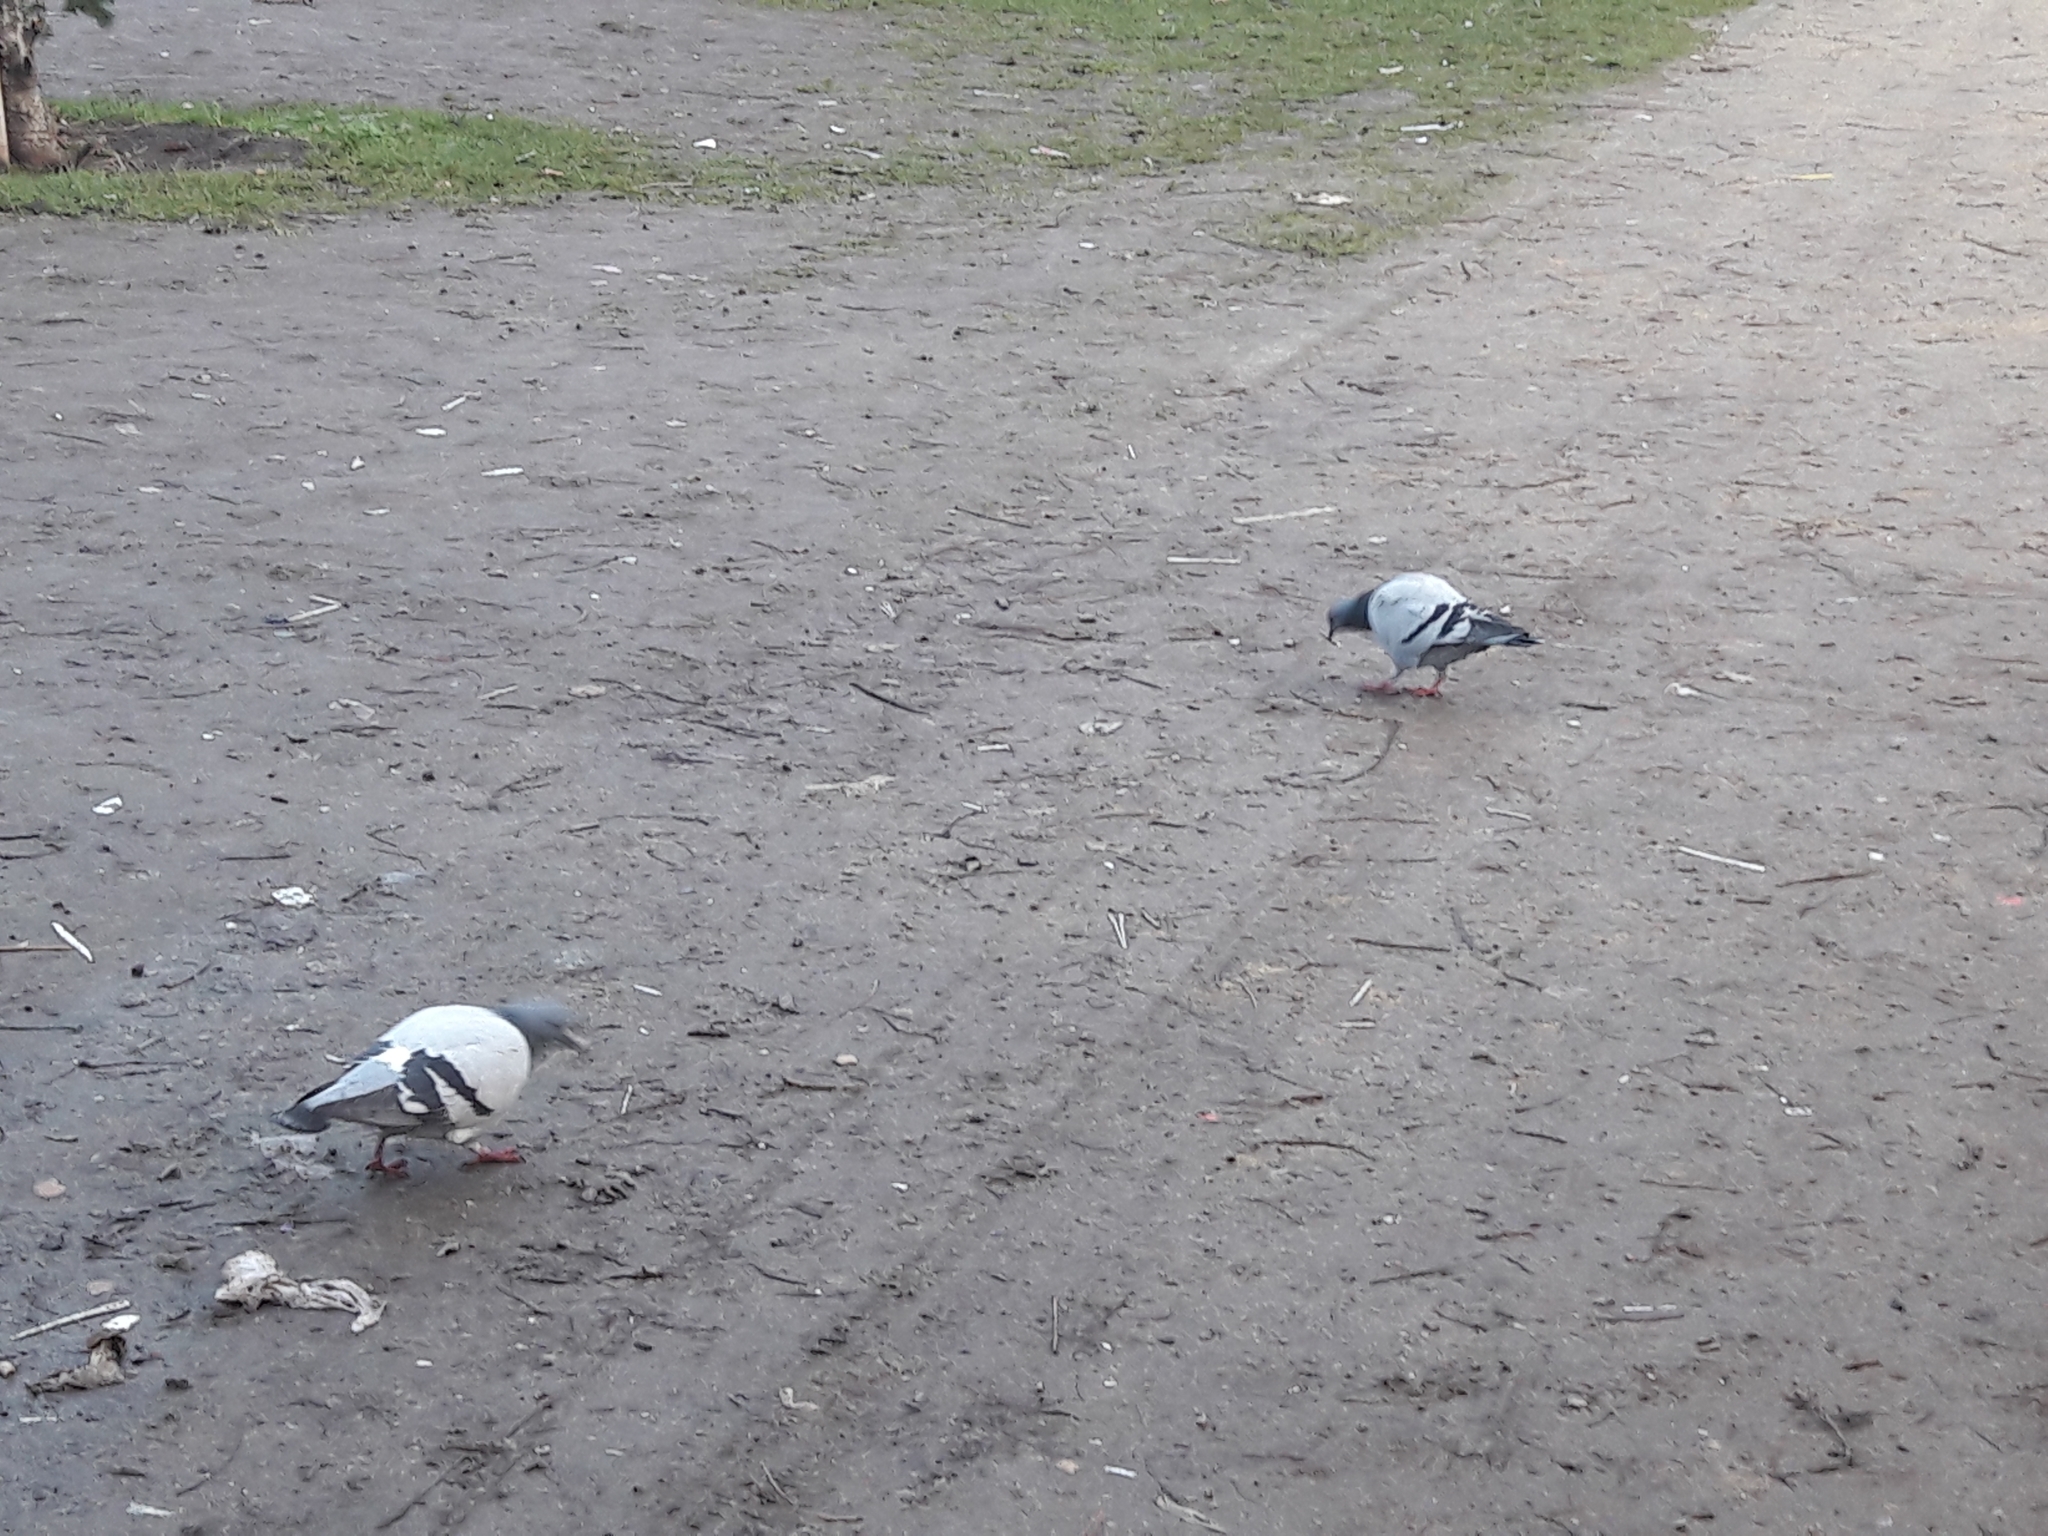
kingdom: Animalia
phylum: Chordata
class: Aves
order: Columbiformes
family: Columbidae
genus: Columba
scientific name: Columba livia
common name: Rock pigeon
